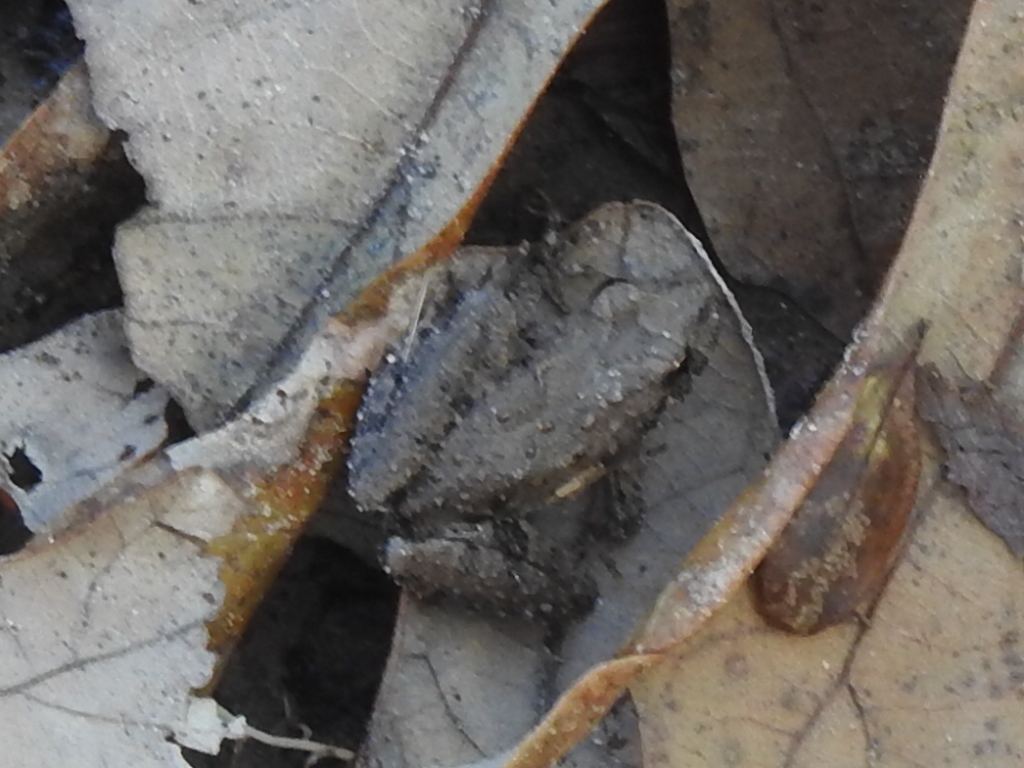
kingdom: Animalia
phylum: Chordata
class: Amphibia
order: Anura
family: Hylidae
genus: Acris
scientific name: Acris blanchardi
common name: Blanchard's cricket frog
